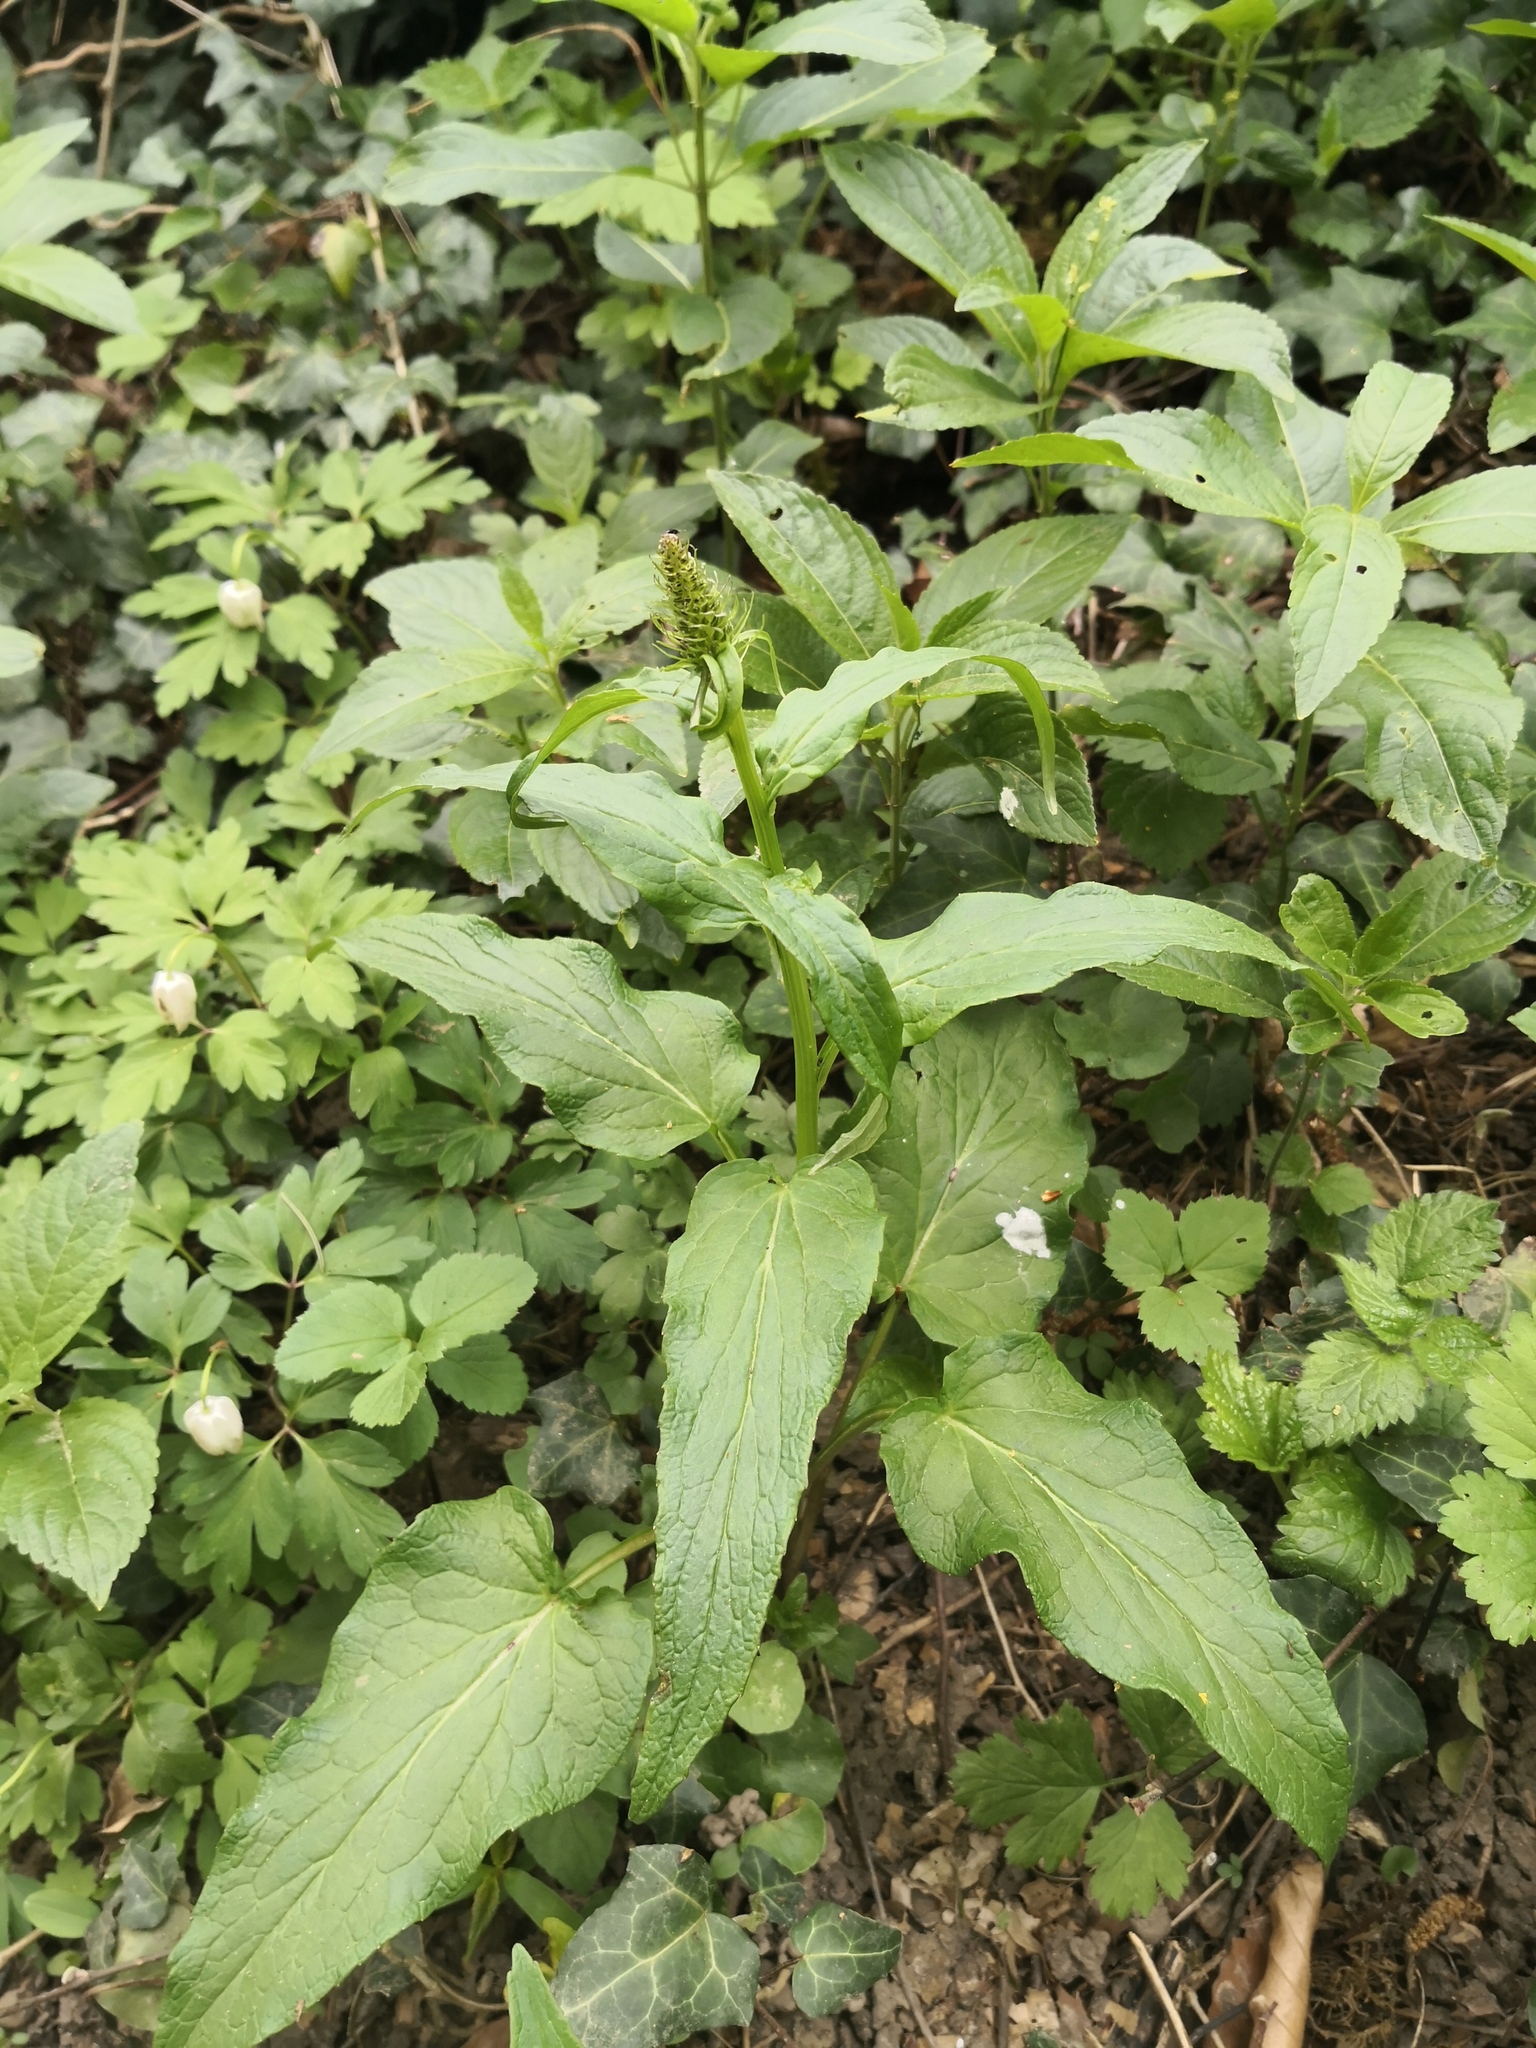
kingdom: Plantae
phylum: Tracheophyta
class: Magnoliopsida
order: Asterales
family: Campanulaceae
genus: Phyteuma
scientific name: Phyteuma spicatum
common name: Spiked rampion
